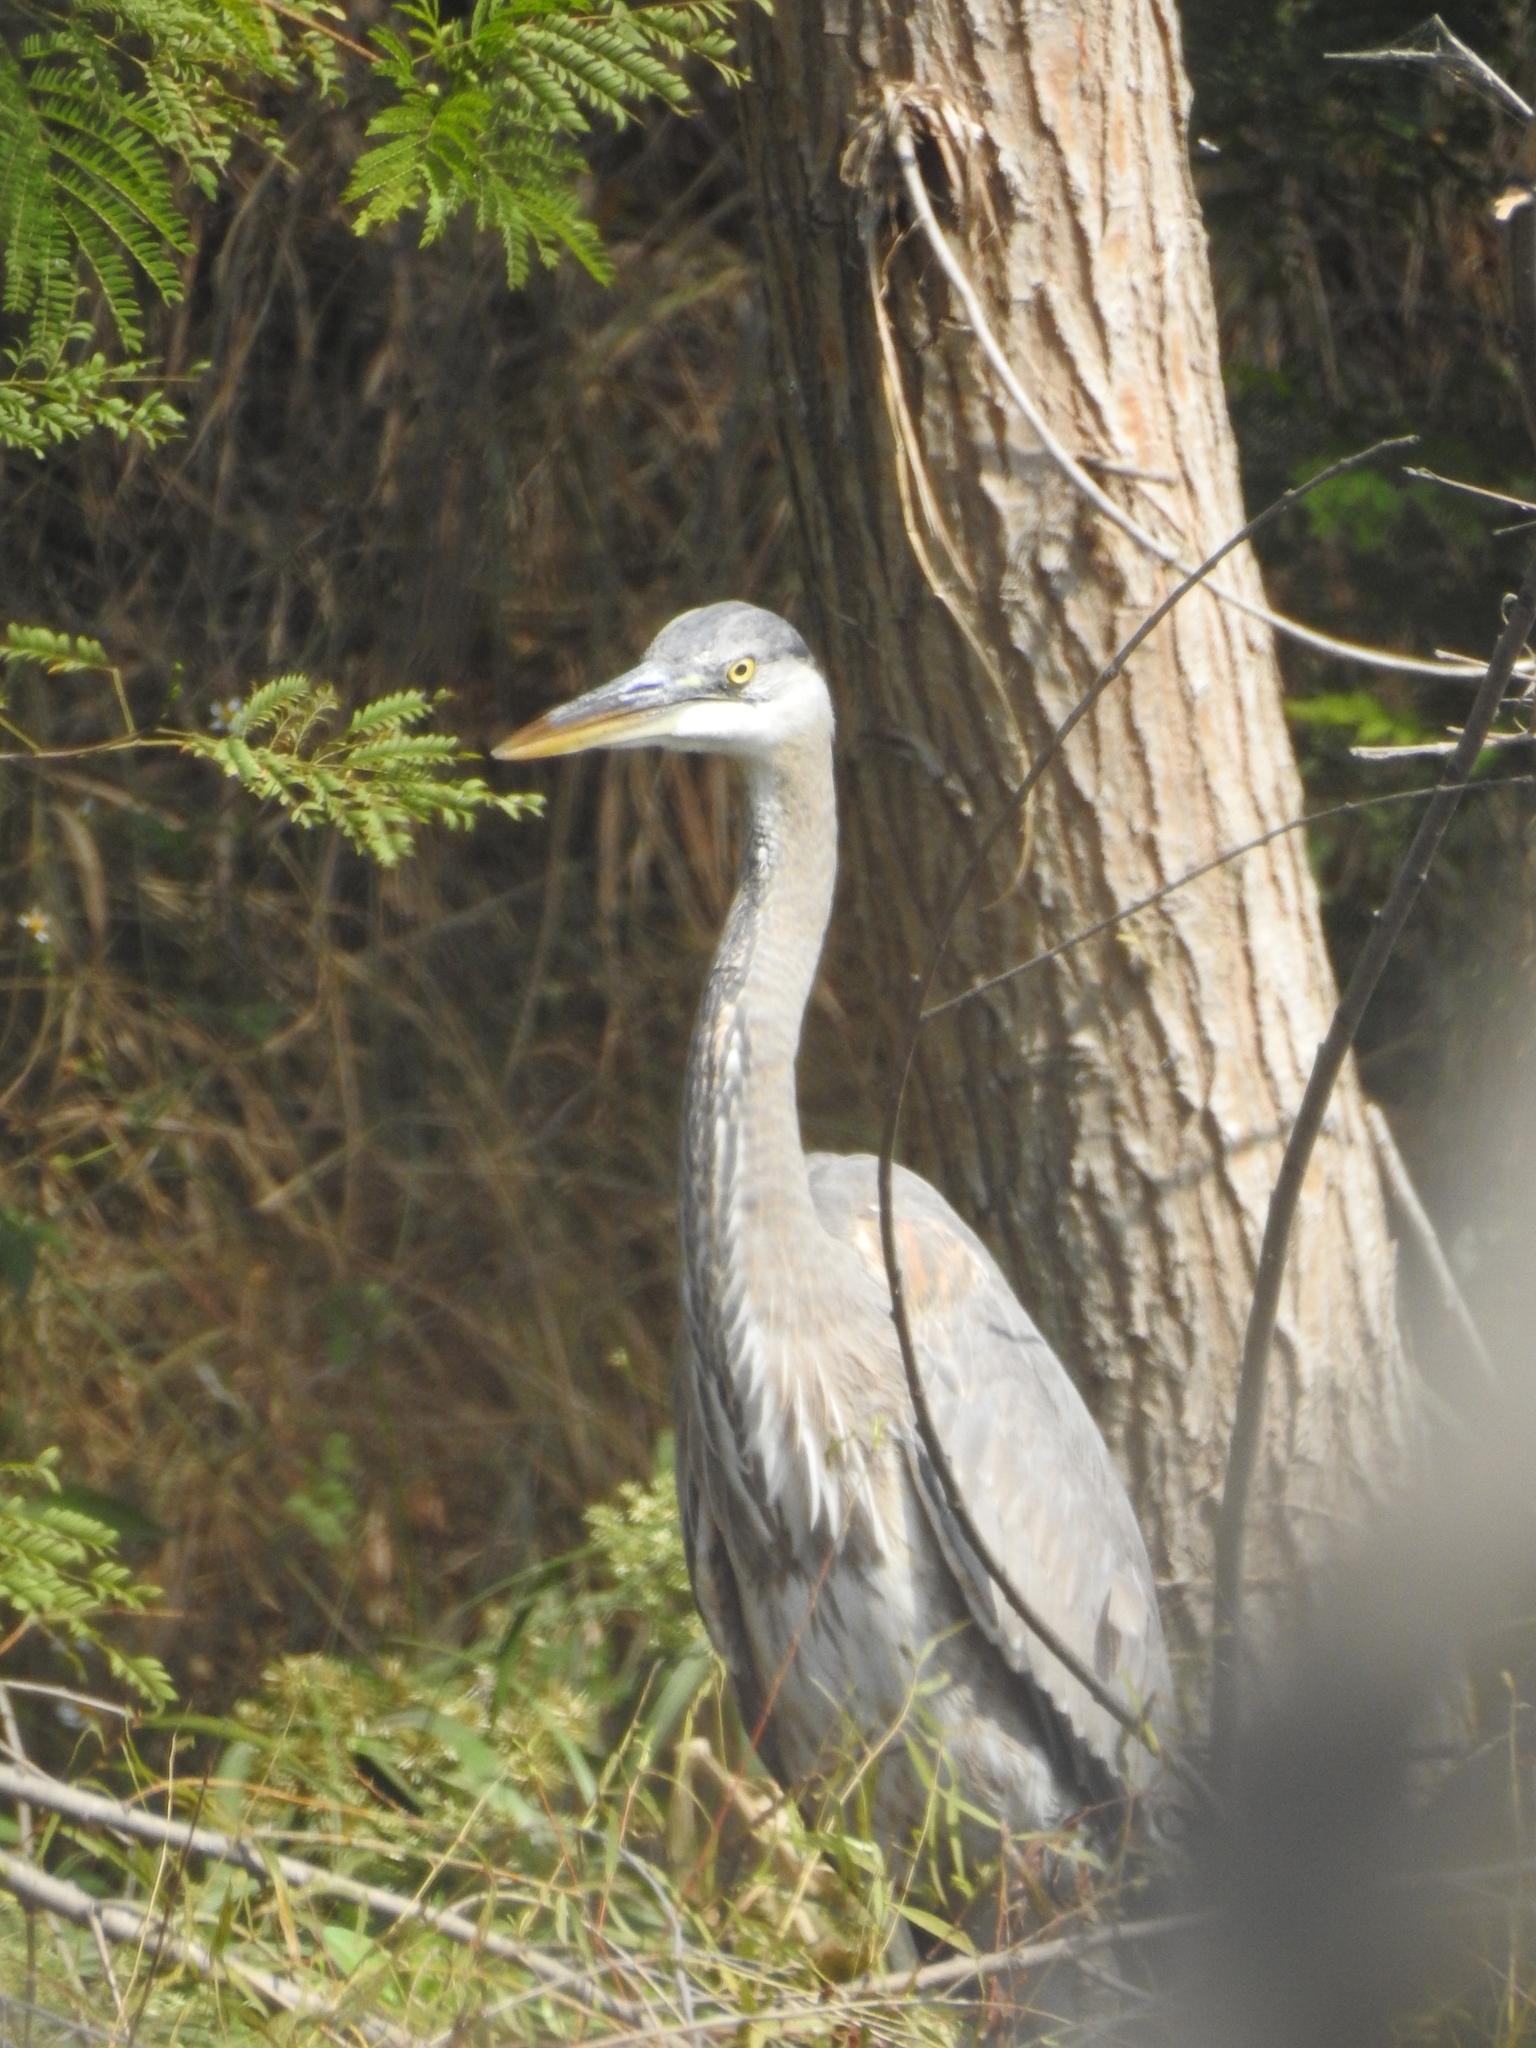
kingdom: Animalia
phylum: Chordata
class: Aves
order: Pelecaniformes
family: Ardeidae
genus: Ardea
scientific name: Ardea herodias
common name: Great blue heron
